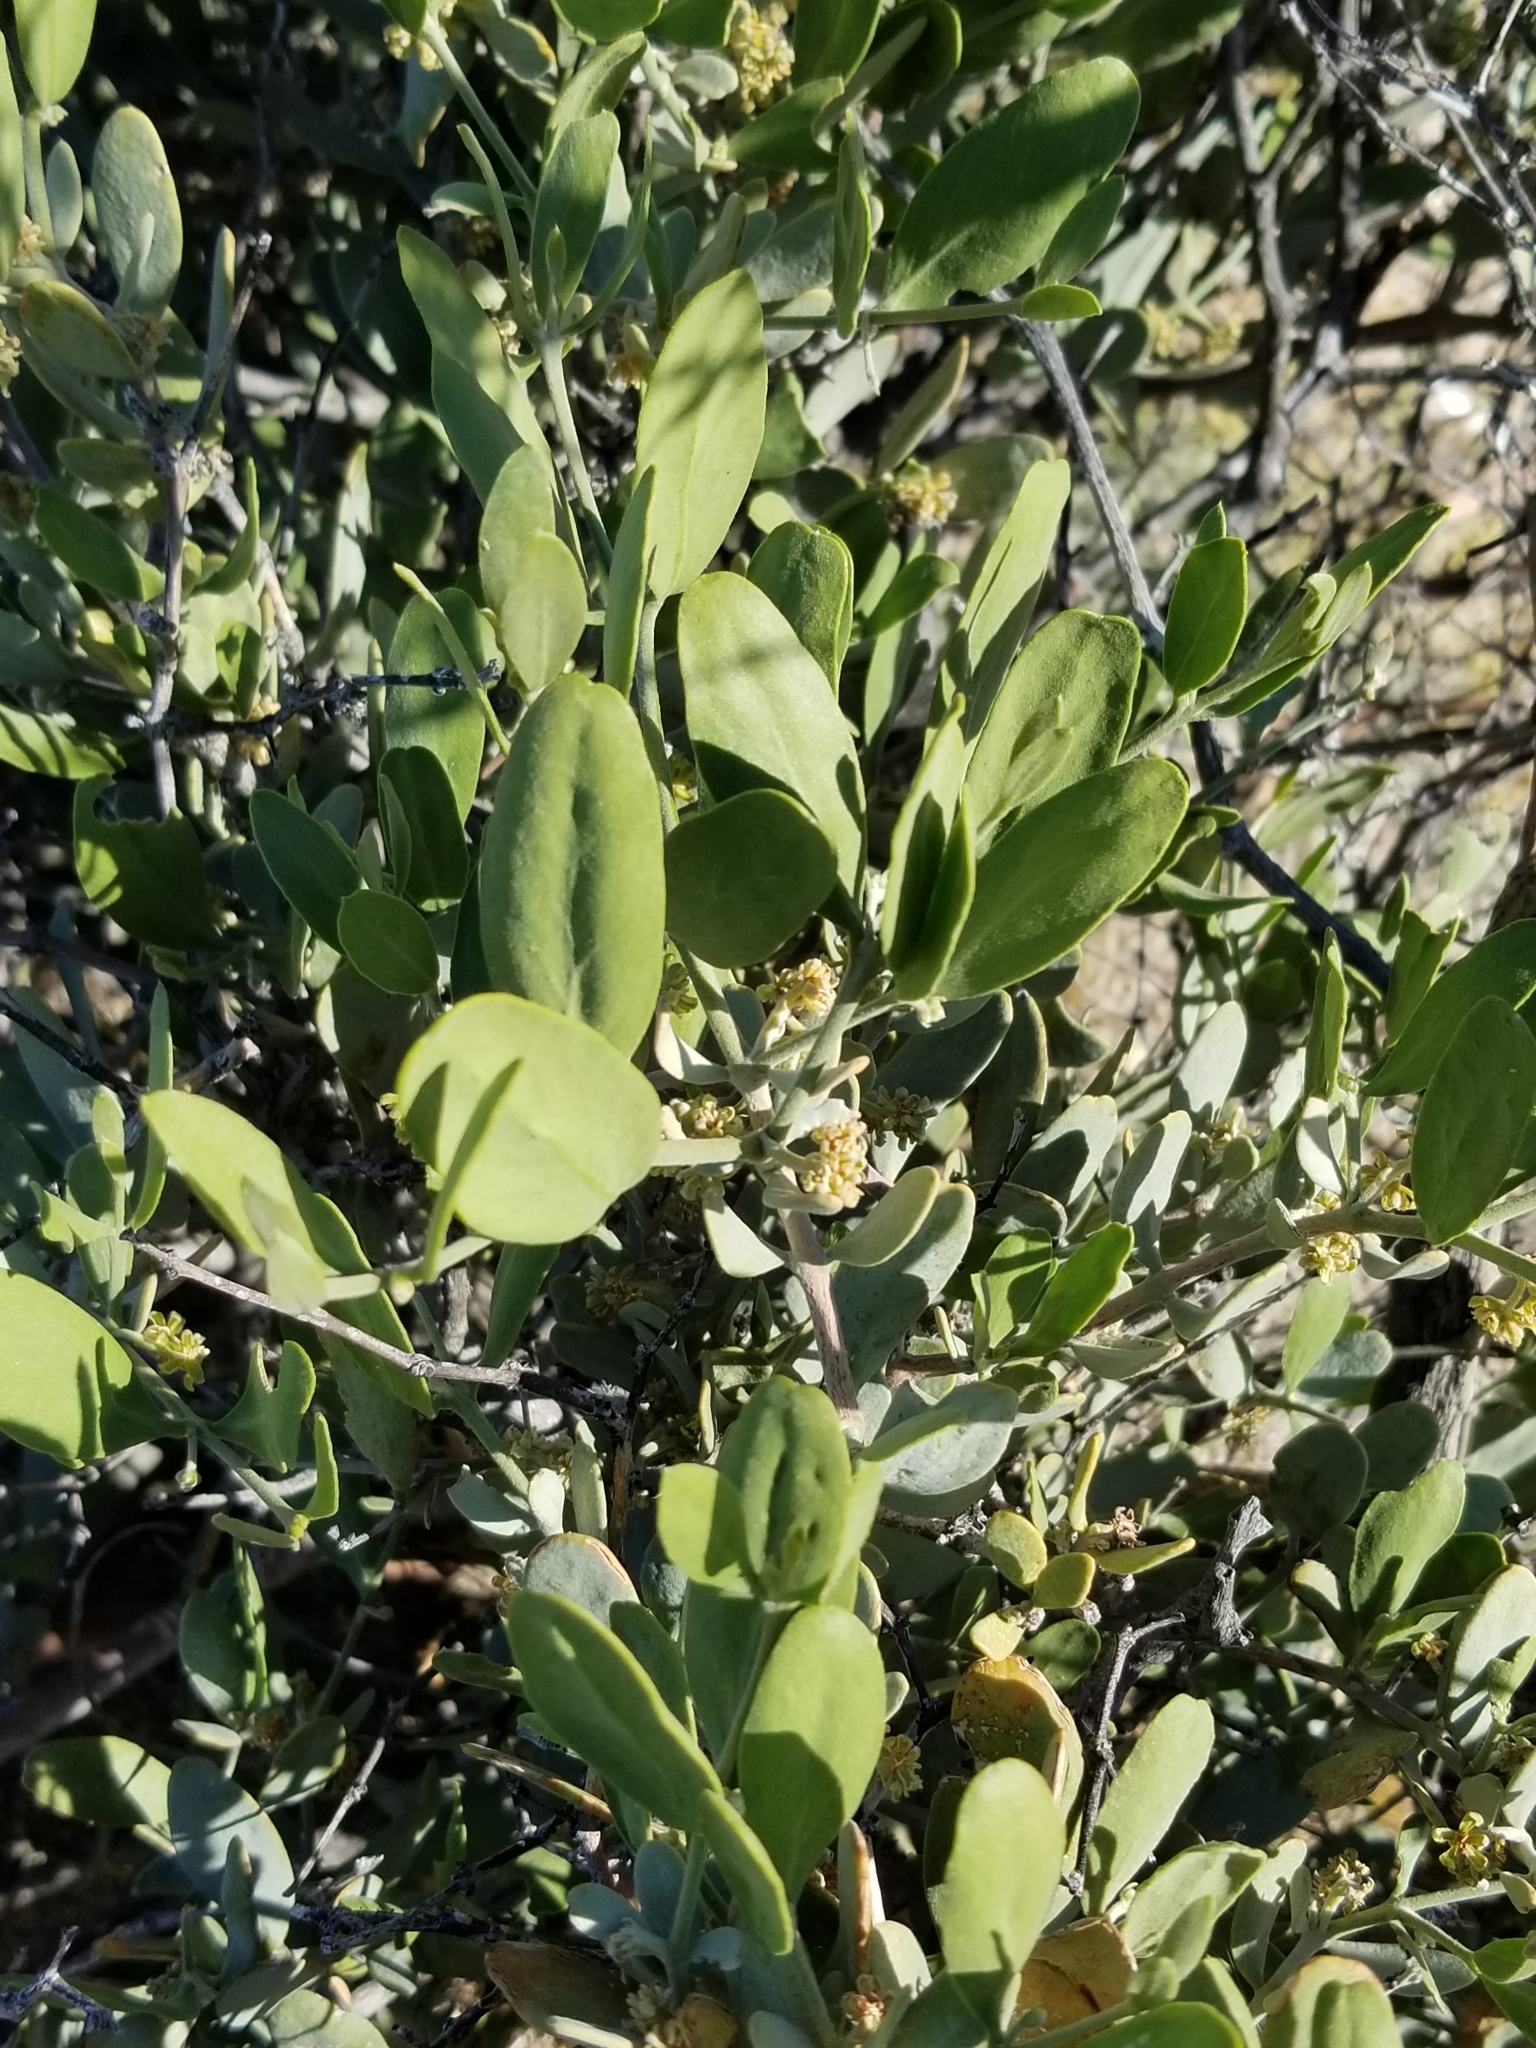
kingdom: Plantae
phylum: Tracheophyta
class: Magnoliopsida
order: Caryophyllales
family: Simmondsiaceae
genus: Simmondsia
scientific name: Simmondsia chinensis
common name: Jojoba
